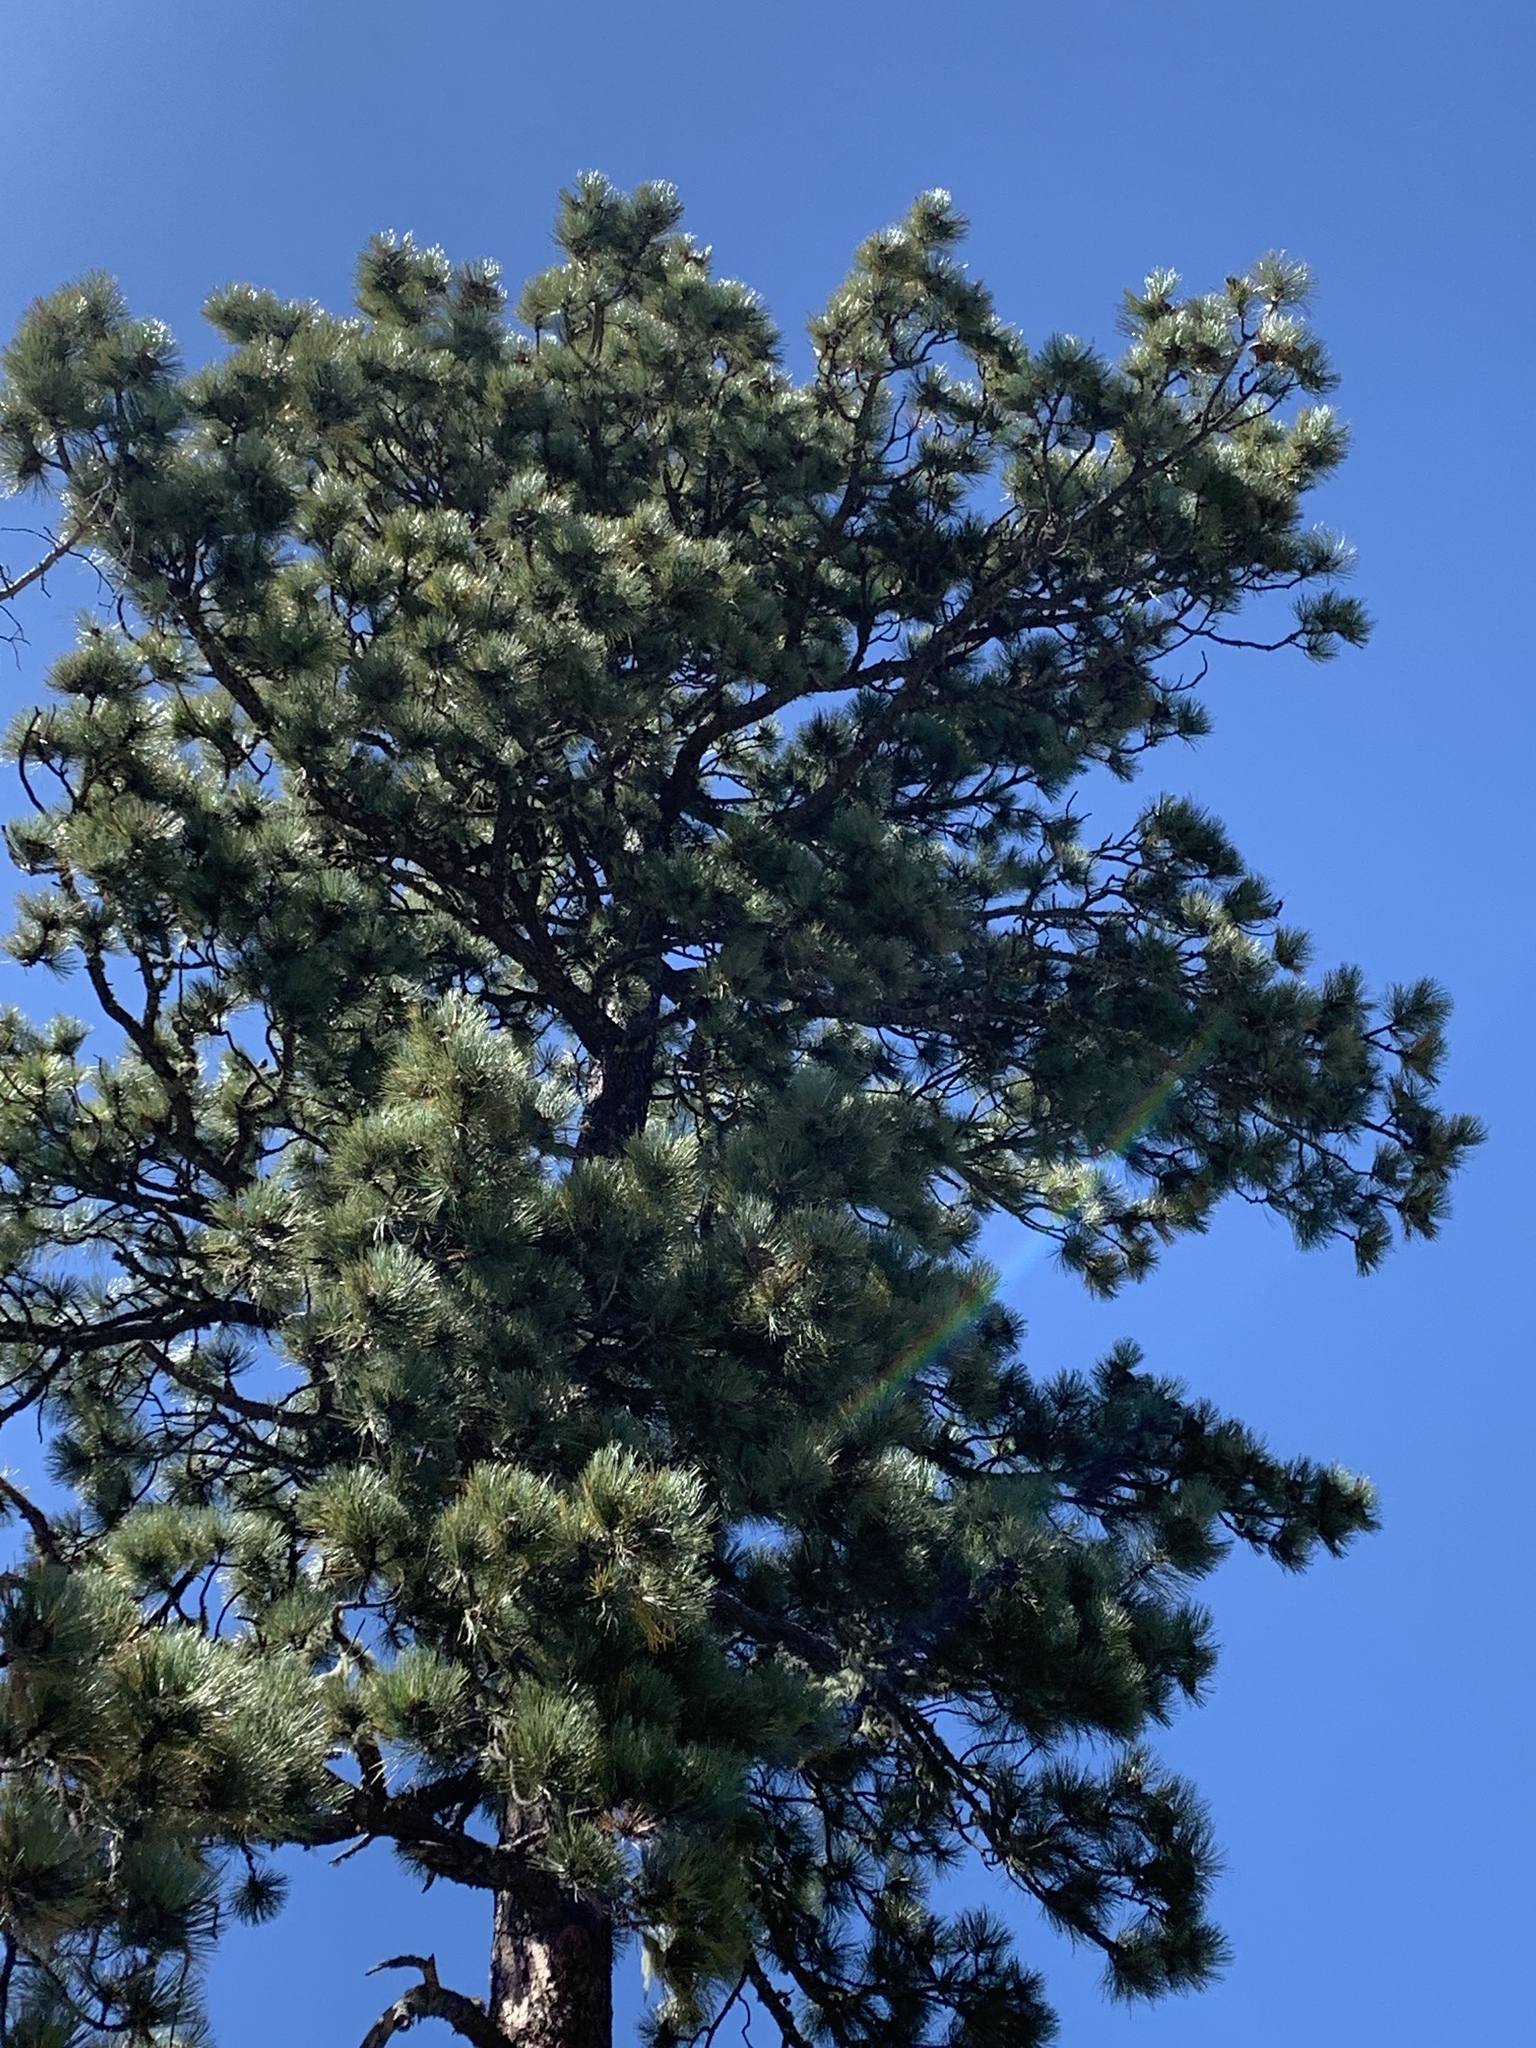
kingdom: Plantae
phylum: Tracheophyta
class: Pinopsida
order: Pinales
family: Pinaceae
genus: Pinus
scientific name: Pinus ponderosa
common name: Western yellow-pine
